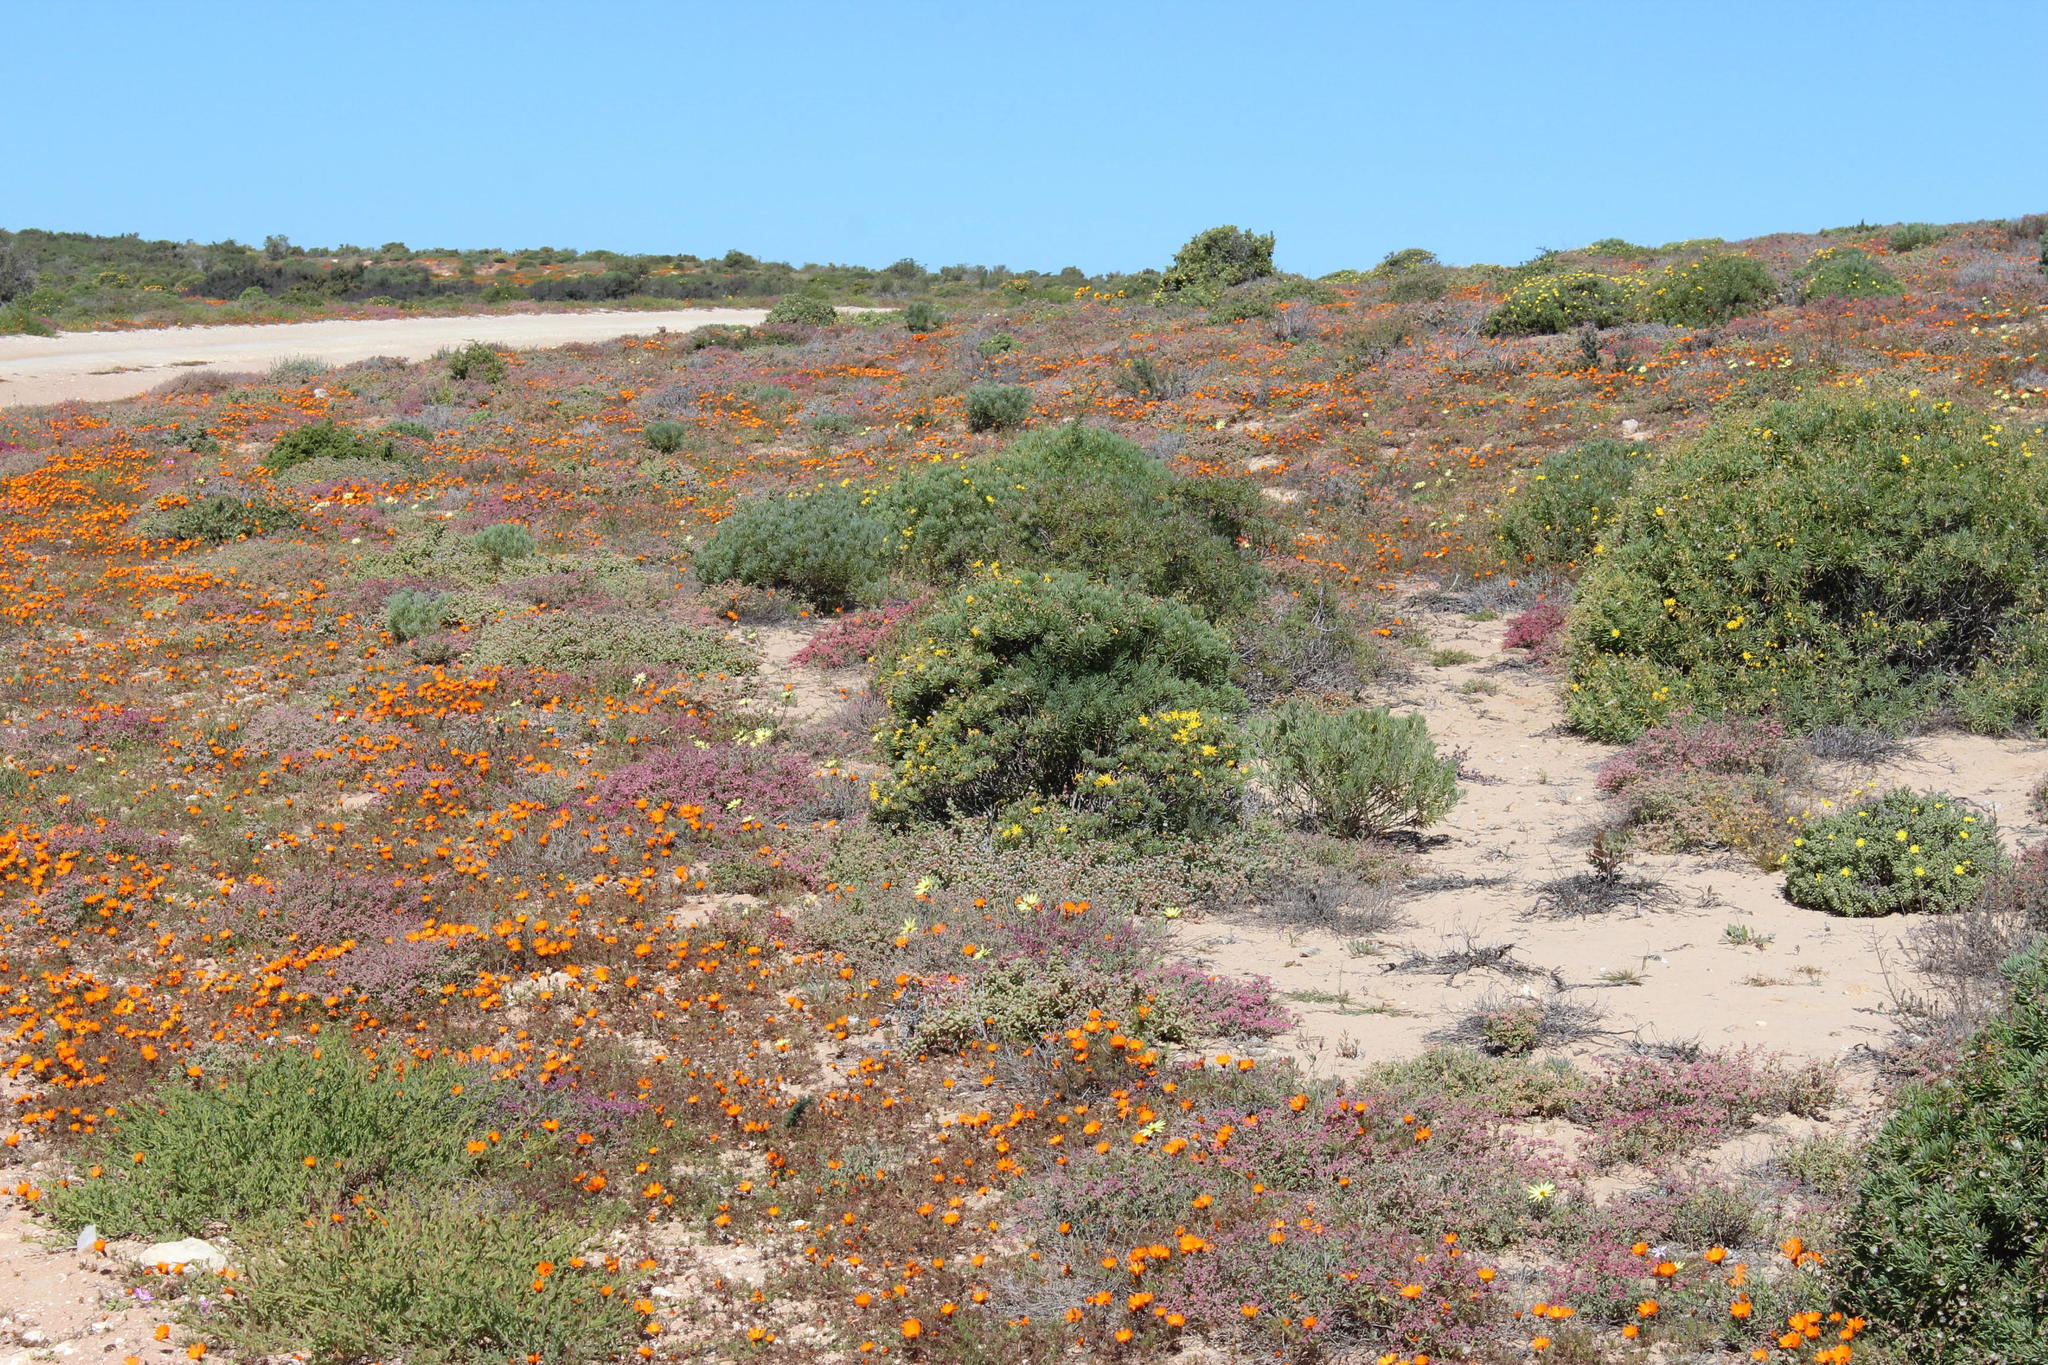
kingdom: Plantae
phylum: Tracheophyta
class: Magnoliopsida
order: Asterales
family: Asteraceae
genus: Dimorphotheca
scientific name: Dimorphotheca pinnata
